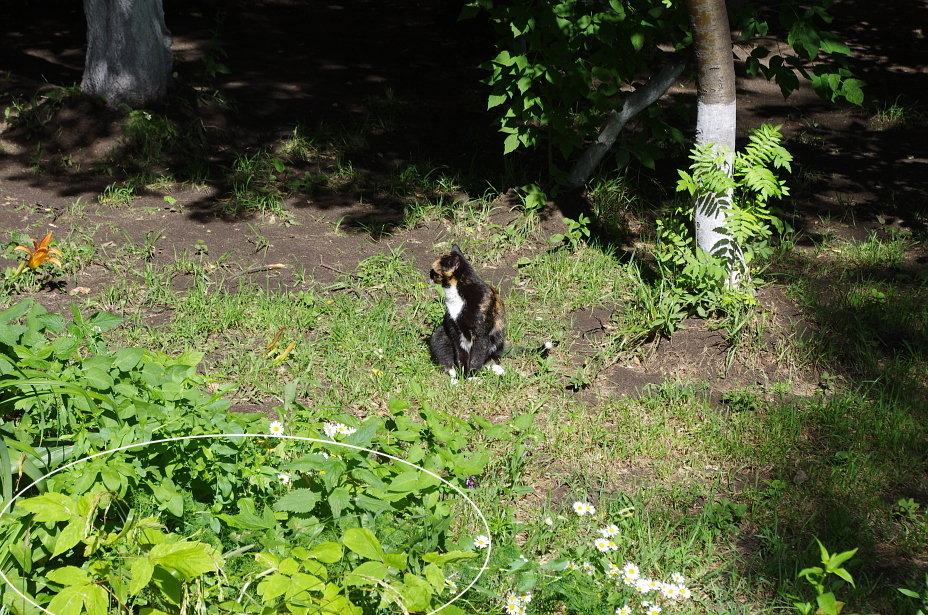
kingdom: Plantae
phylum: Tracheophyta
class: Magnoliopsida
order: Sapindales
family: Sapindaceae
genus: Acer
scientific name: Acer negundo
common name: Ashleaf maple
